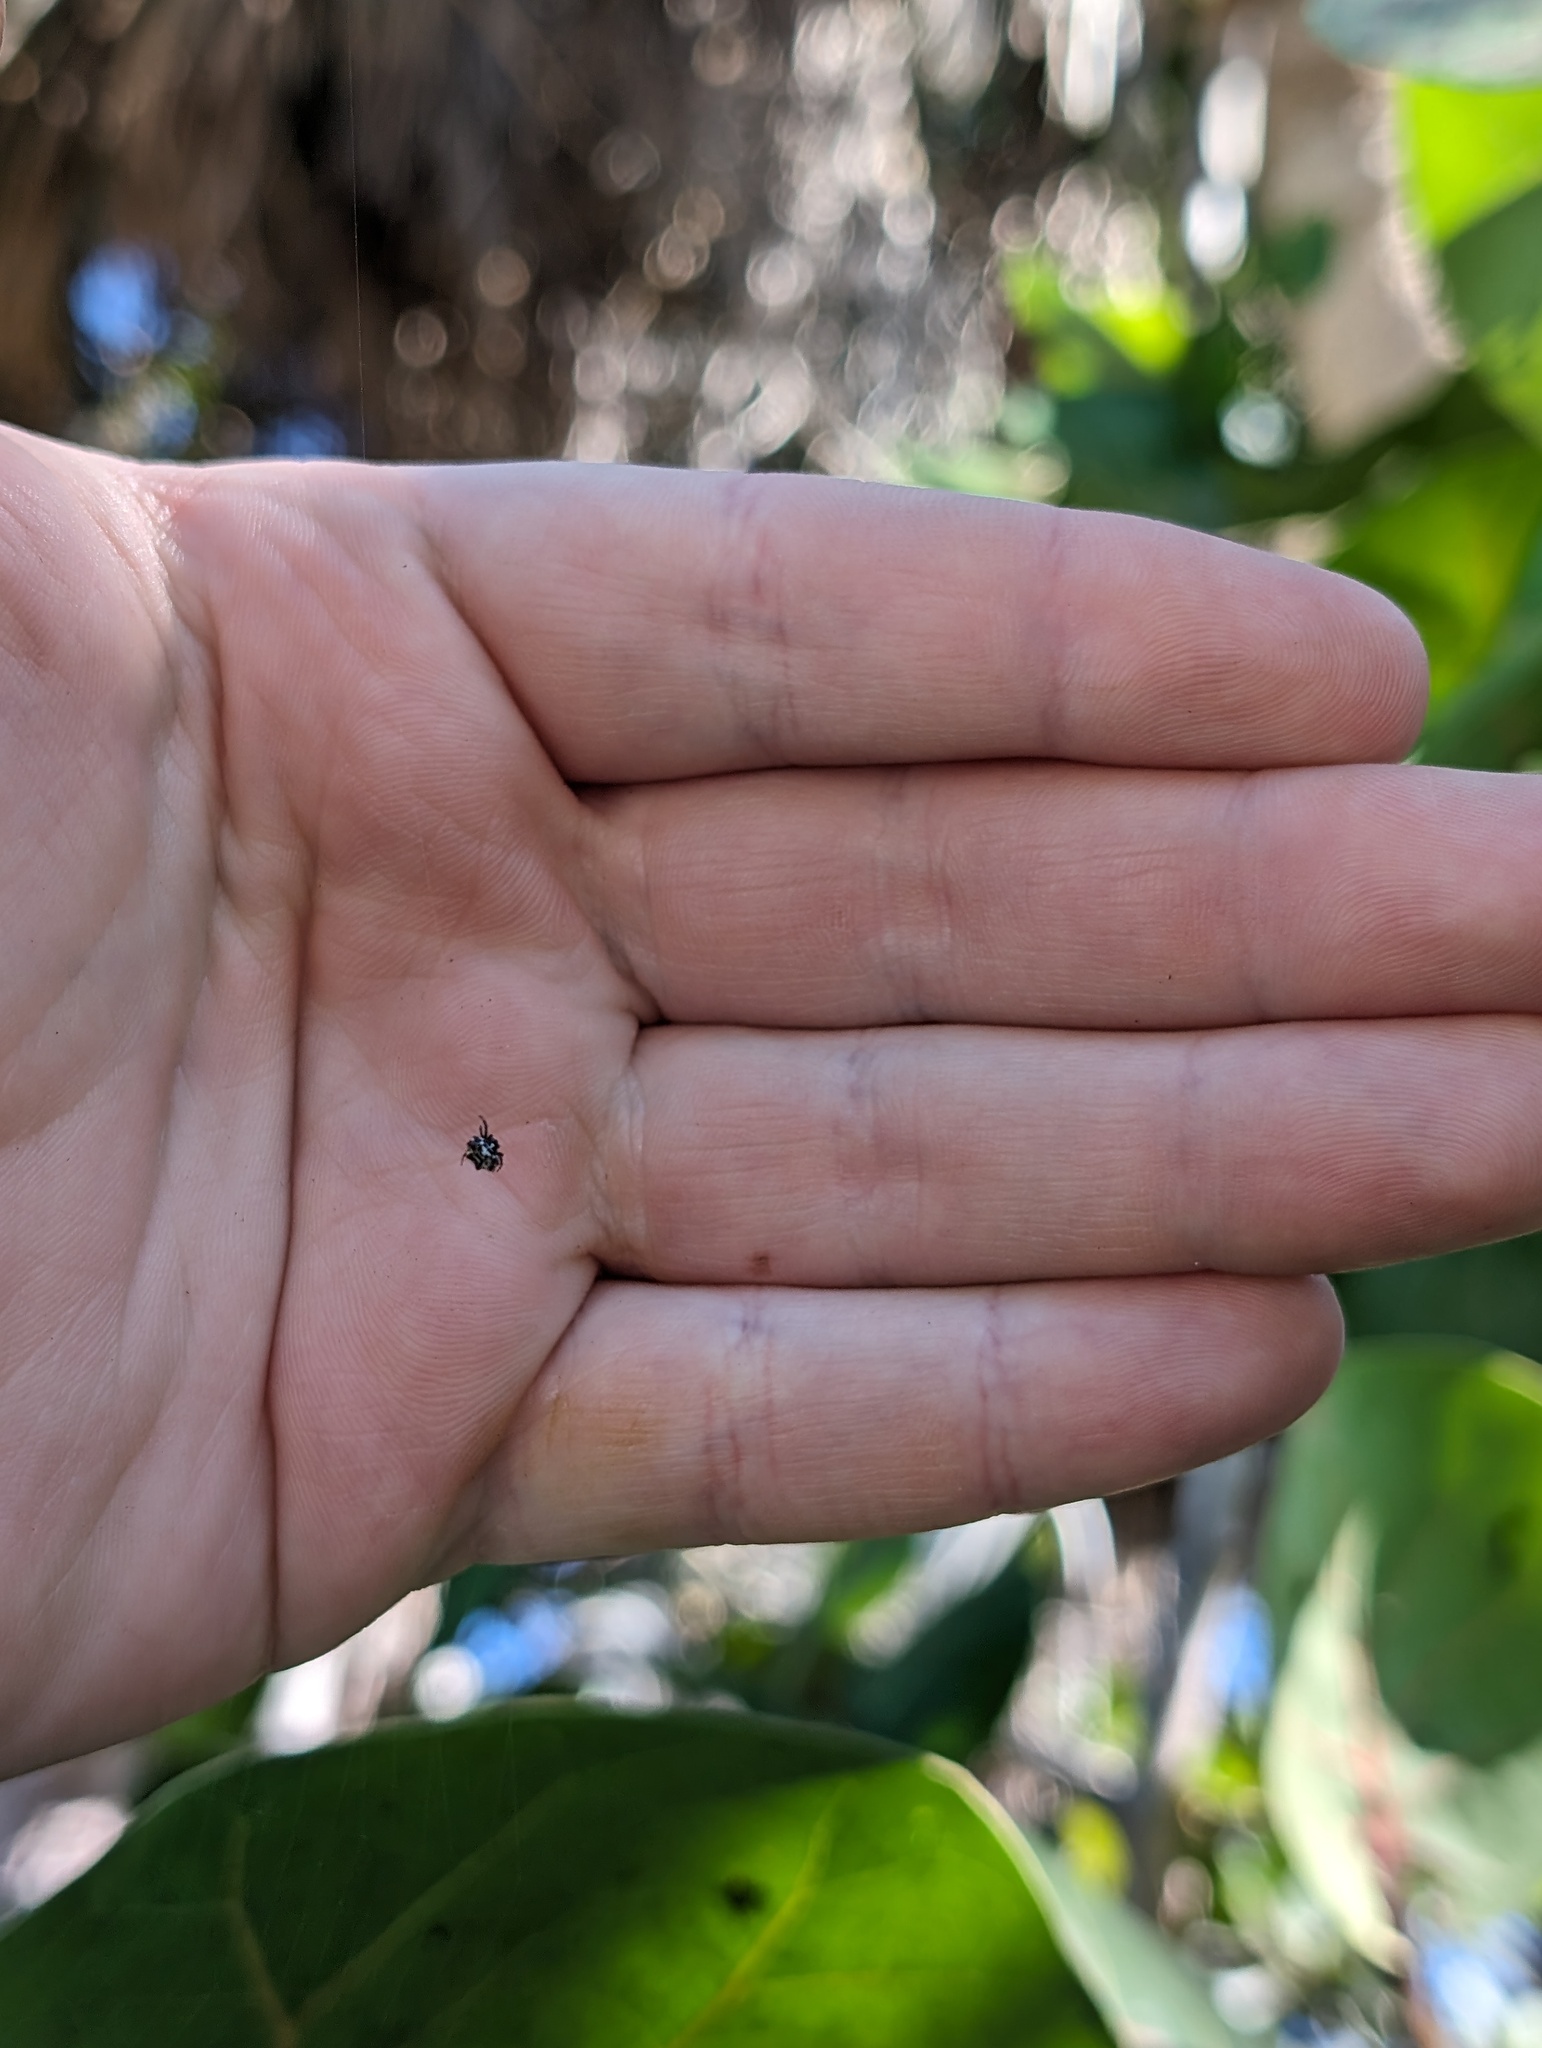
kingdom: Animalia
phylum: Arthropoda
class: Arachnida
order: Araneae
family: Araneidae
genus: Gasteracantha
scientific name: Gasteracantha cancriformis
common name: Orb weavers
